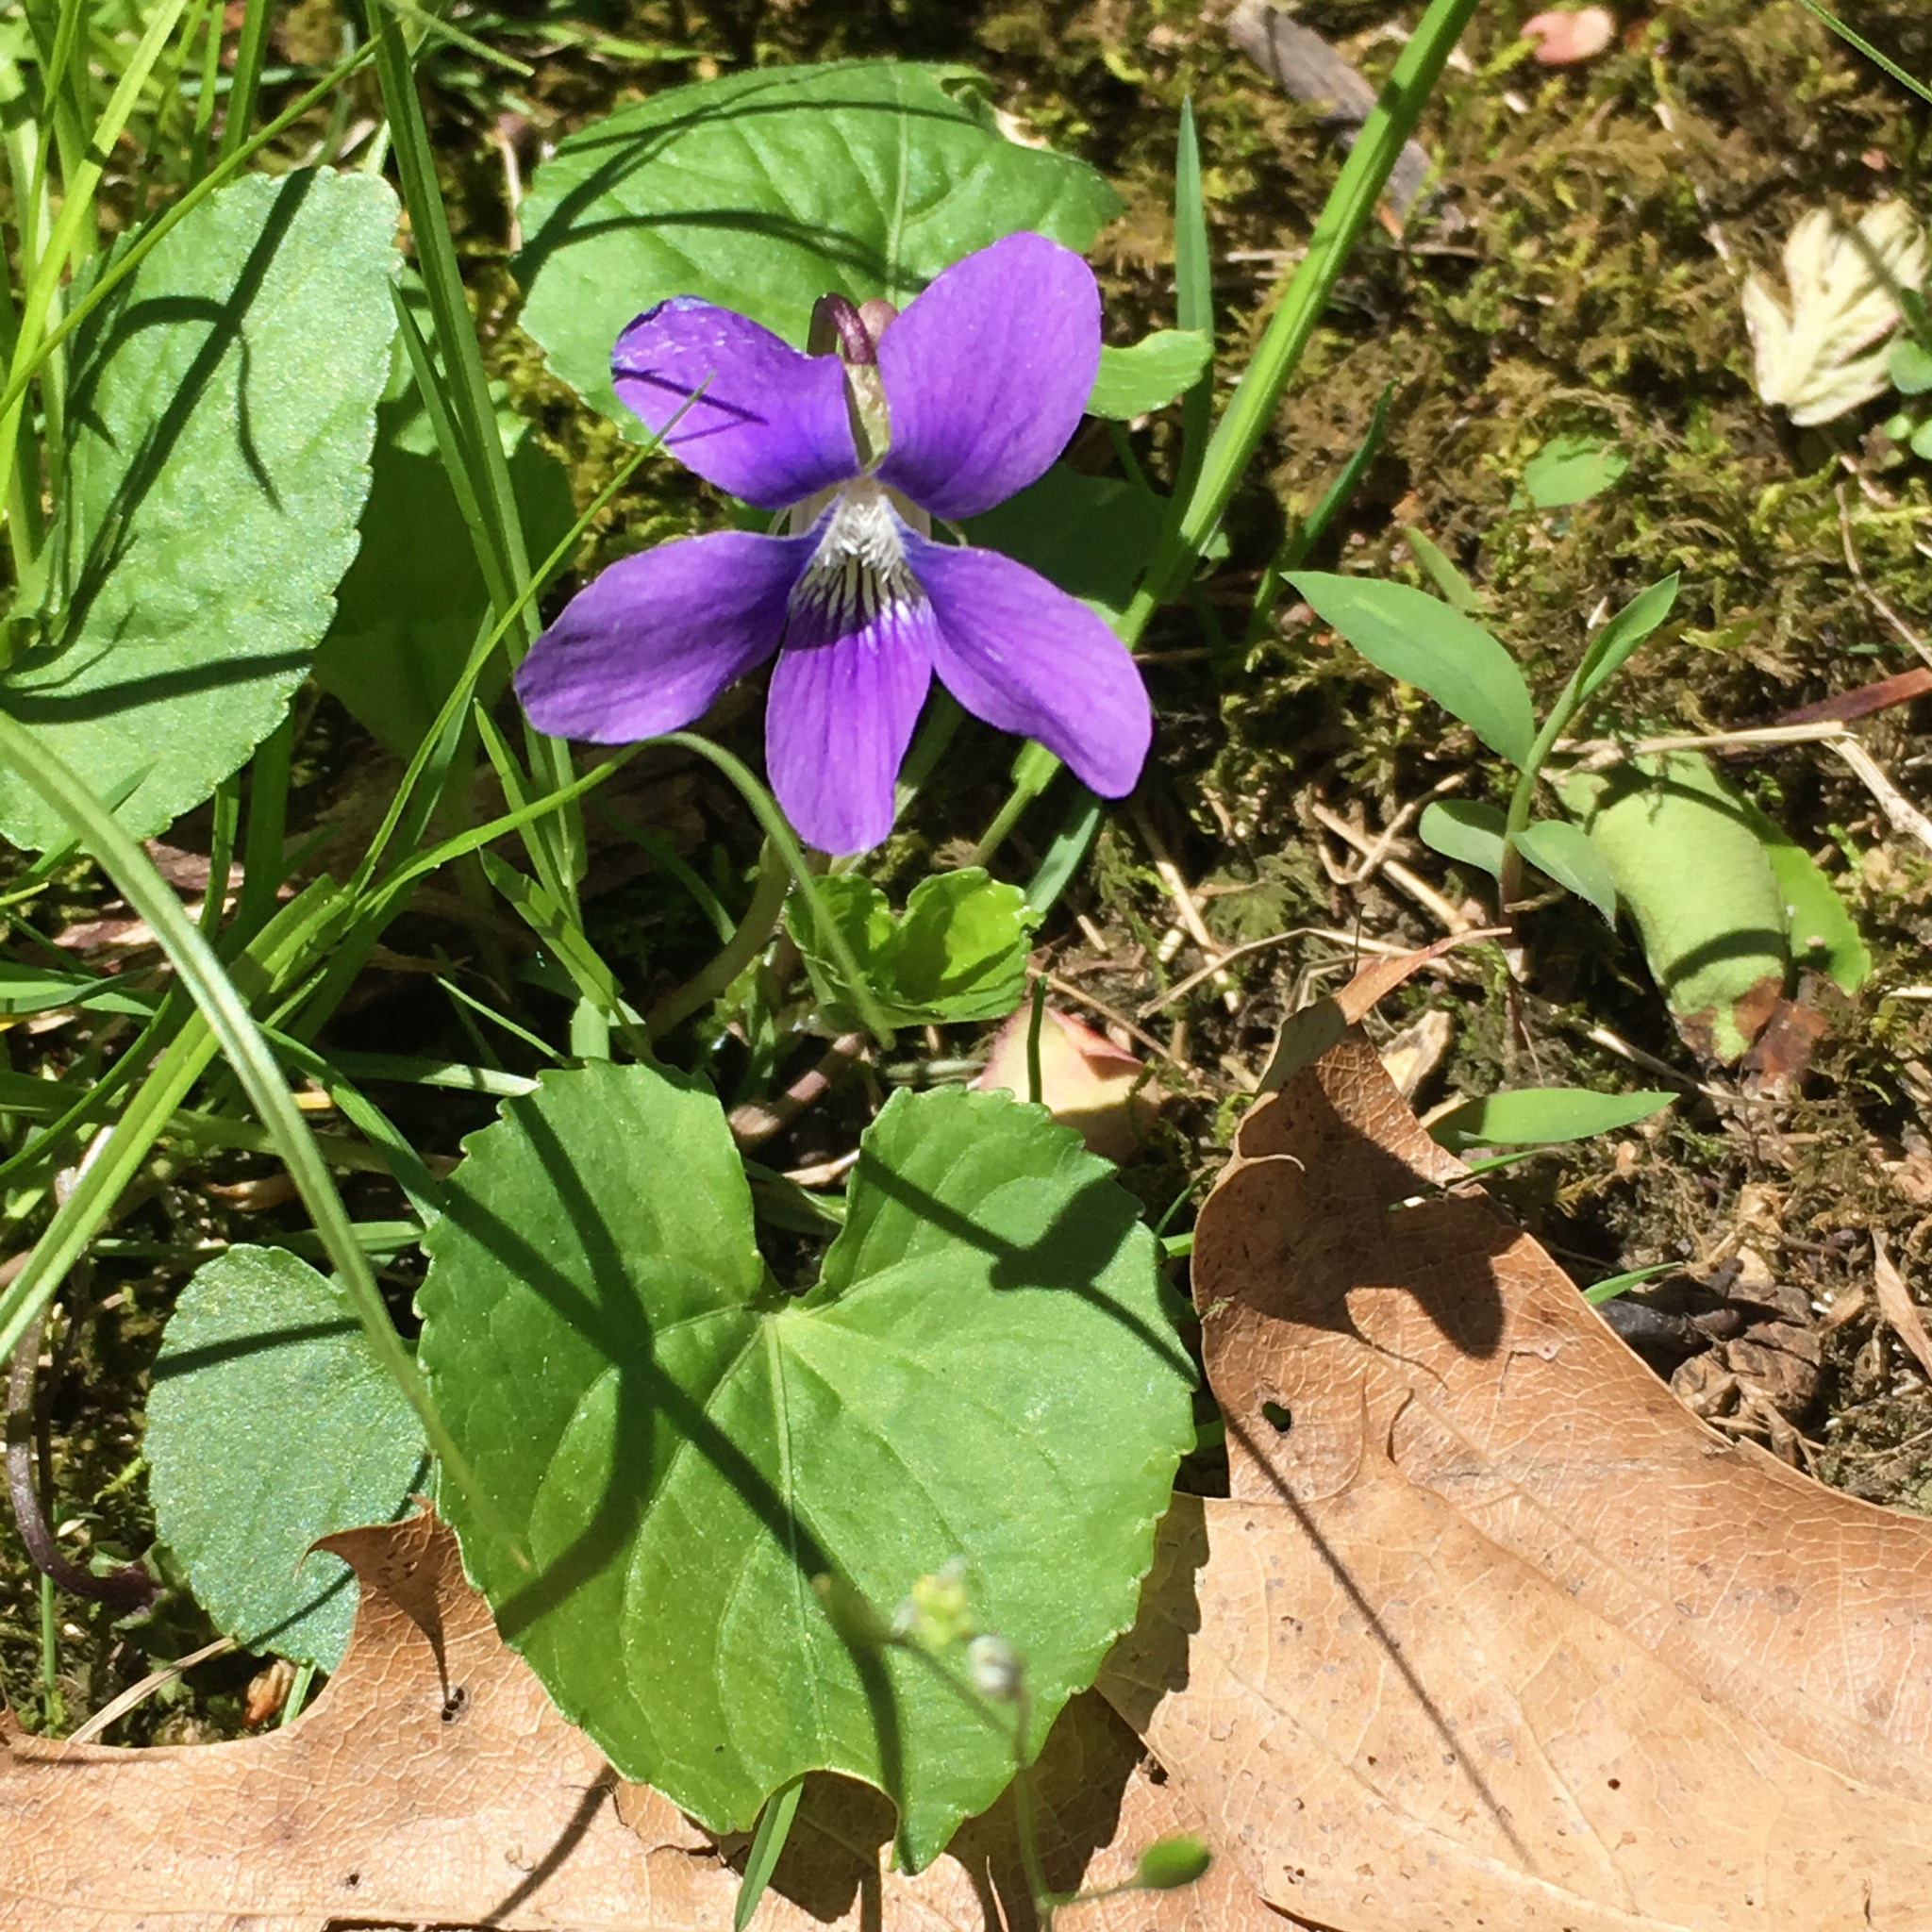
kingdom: Plantae
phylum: Tracheophyta
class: Magnoliopsida
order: Malpighiales
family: Violaceae
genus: Viola
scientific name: Viola sororia
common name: Dooryard violet
